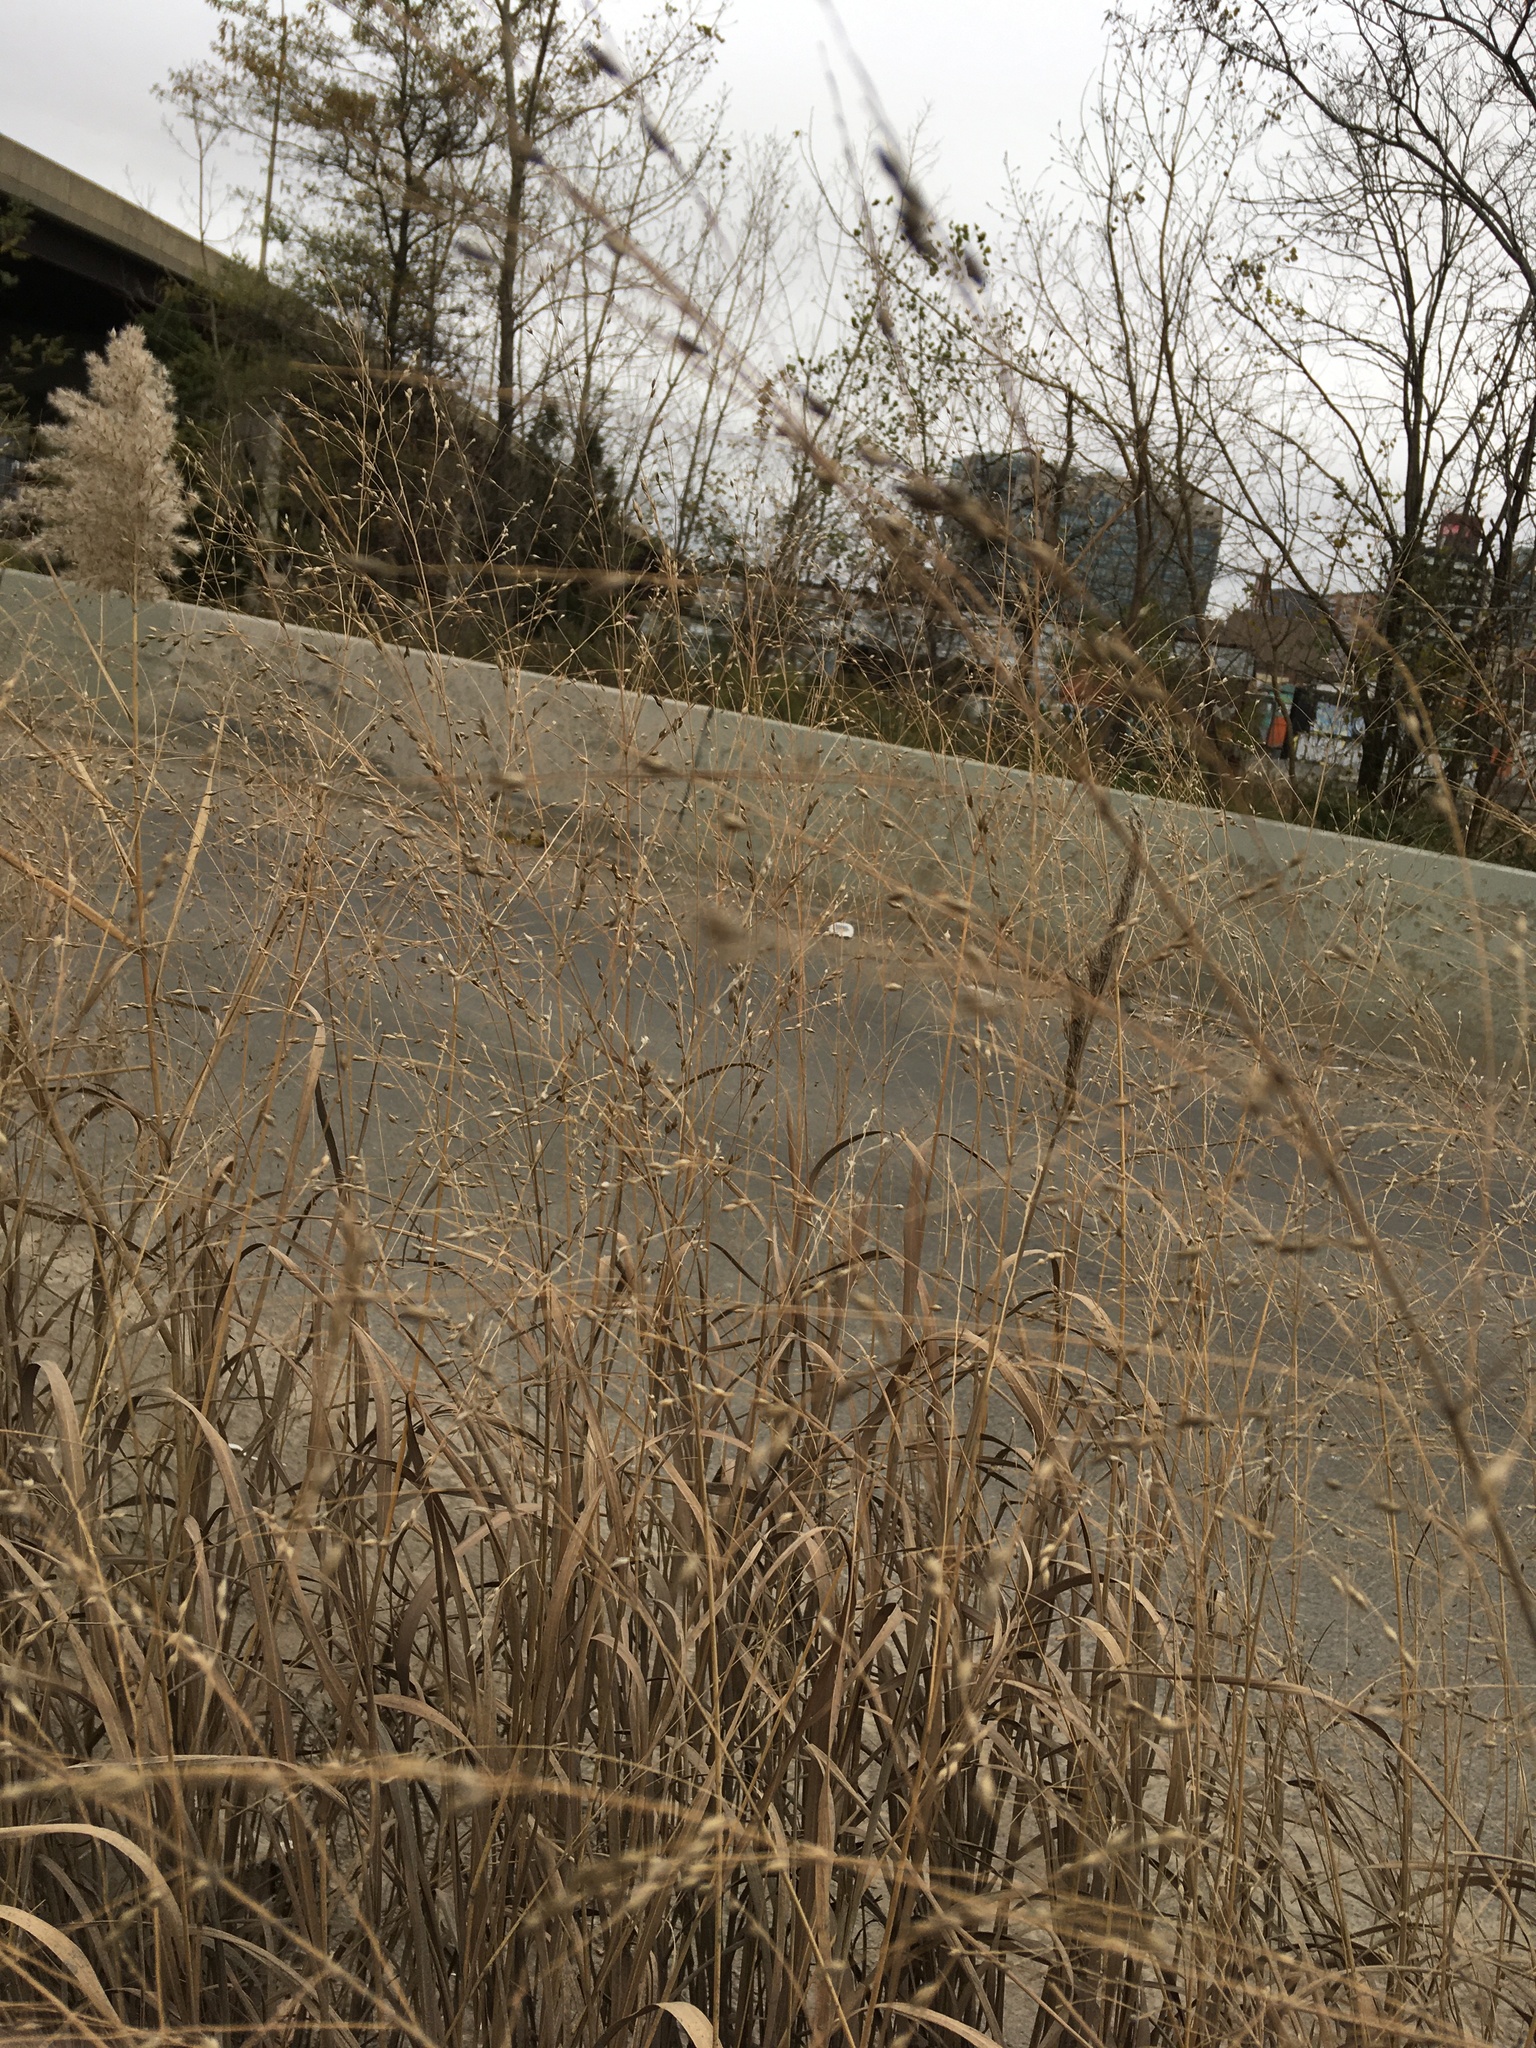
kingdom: Plantae
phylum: Tracheophyta
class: Liliopsida
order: Poales
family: Poaceae
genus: Panicum
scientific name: Panicum virgatum
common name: Switchgrass
